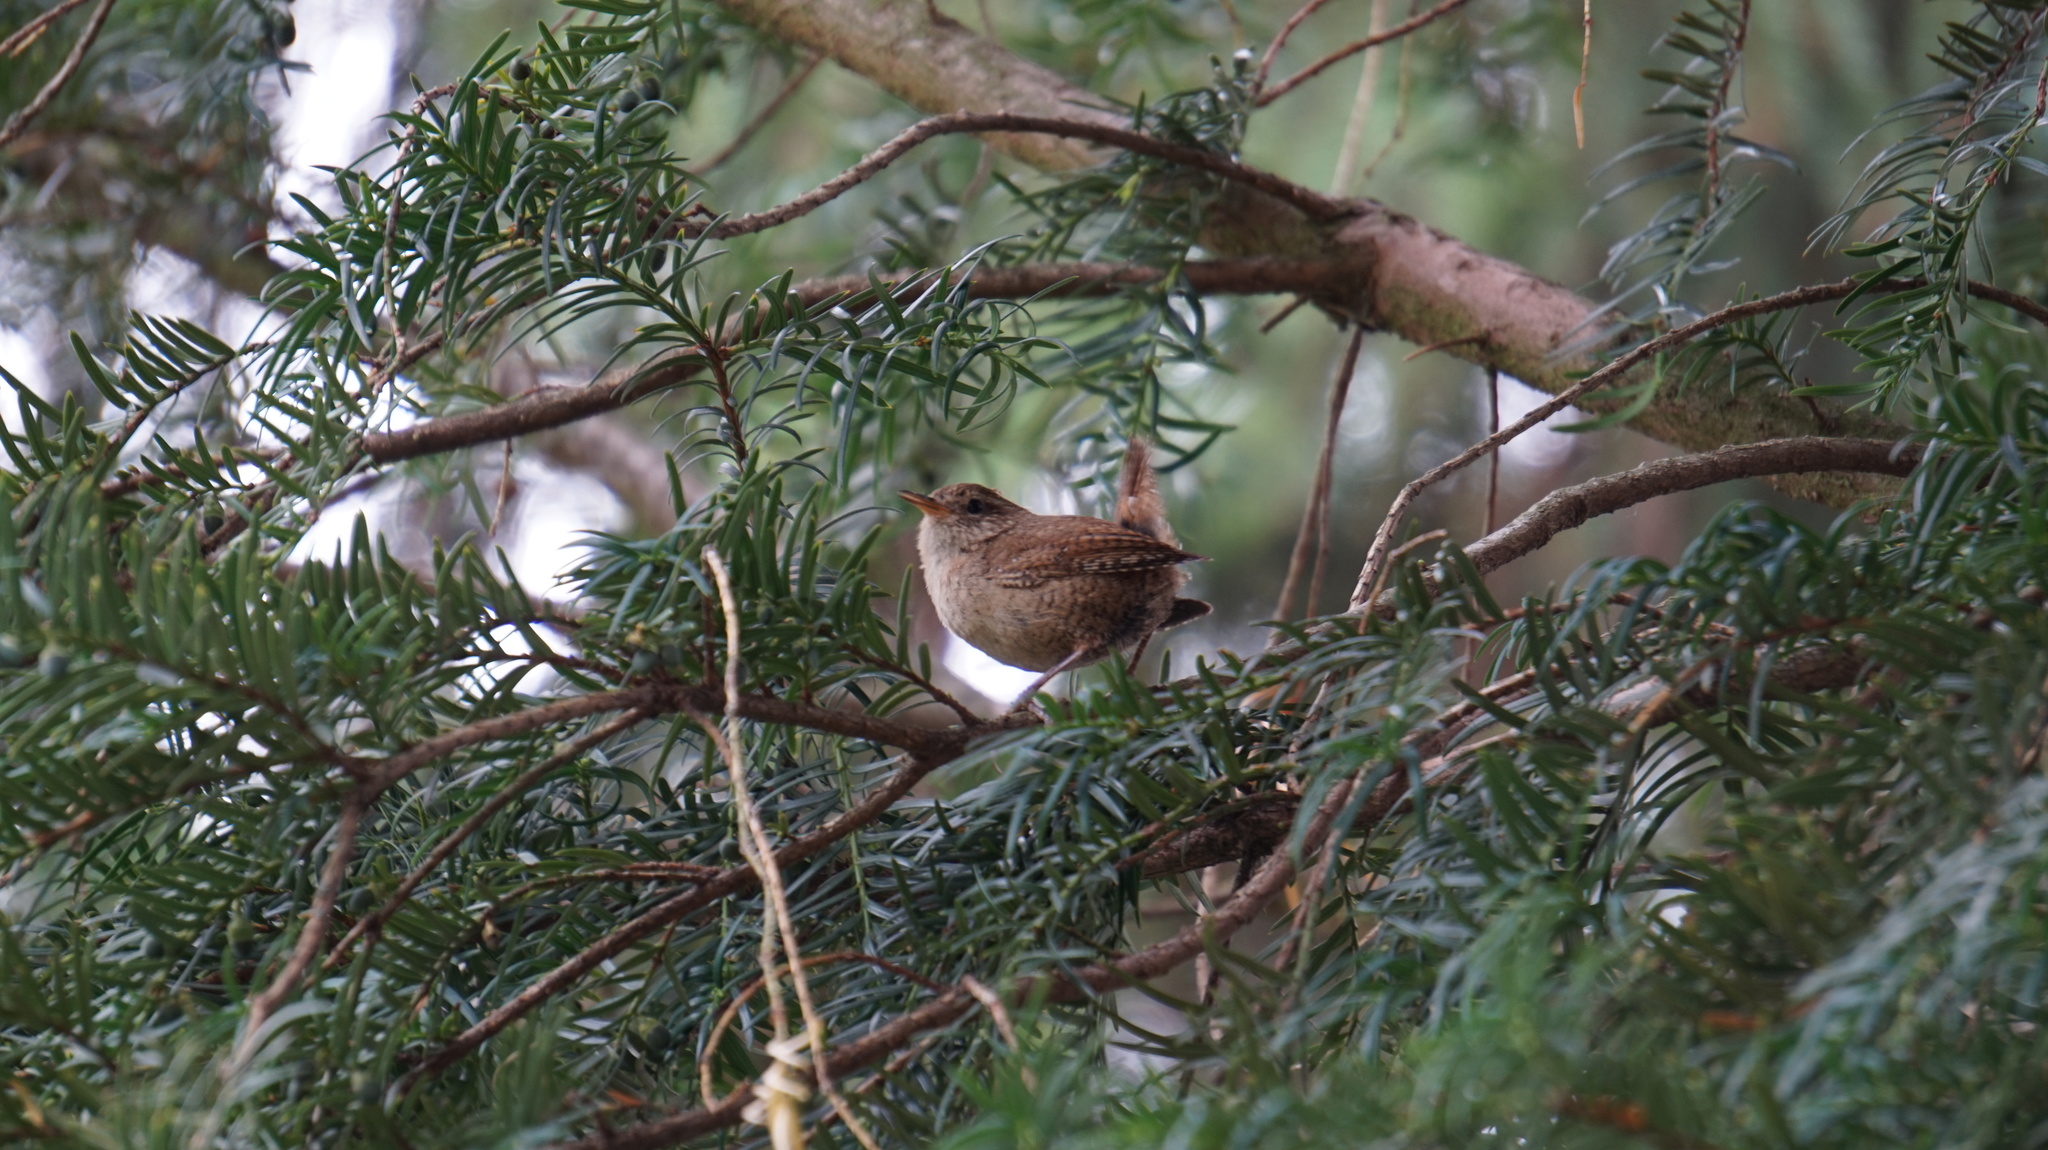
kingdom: Animalia
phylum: Chordata
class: Aves
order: Passeriformes
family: Troglodytidae
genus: Troglodytes
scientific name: Troglodytes troglodytes
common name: Eurasian wren
